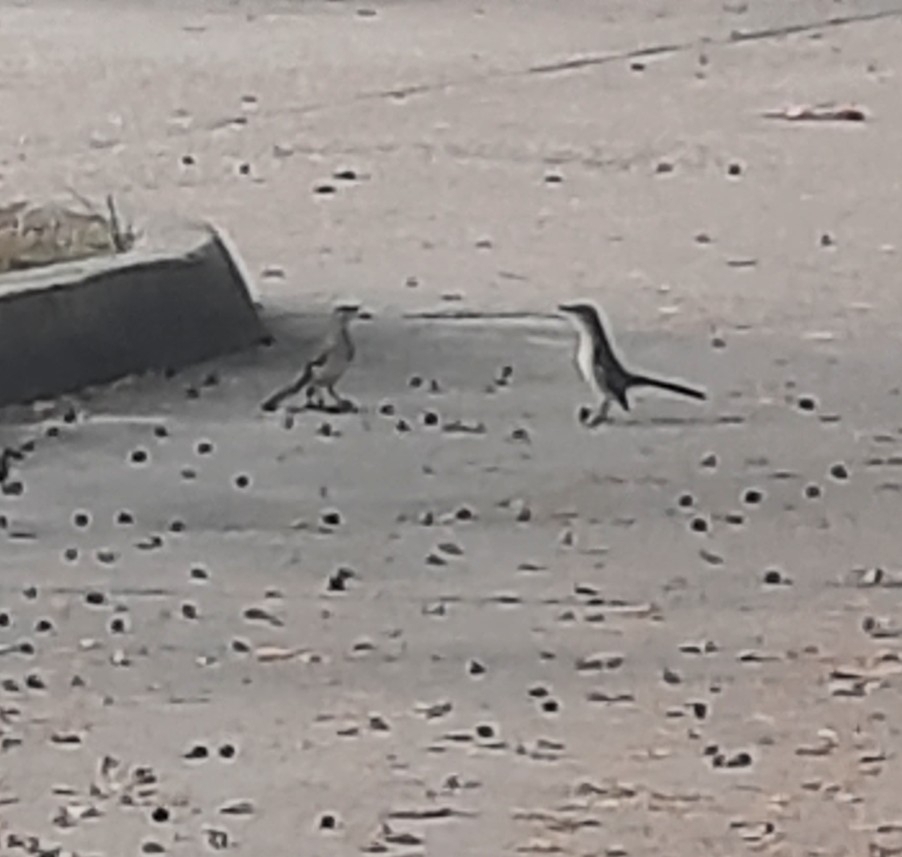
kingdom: Animalia
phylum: Chordata
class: Aves
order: Passeriformes
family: Mimidae
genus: Mimus
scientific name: Mimus polyglottos
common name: Northern mockingbird
